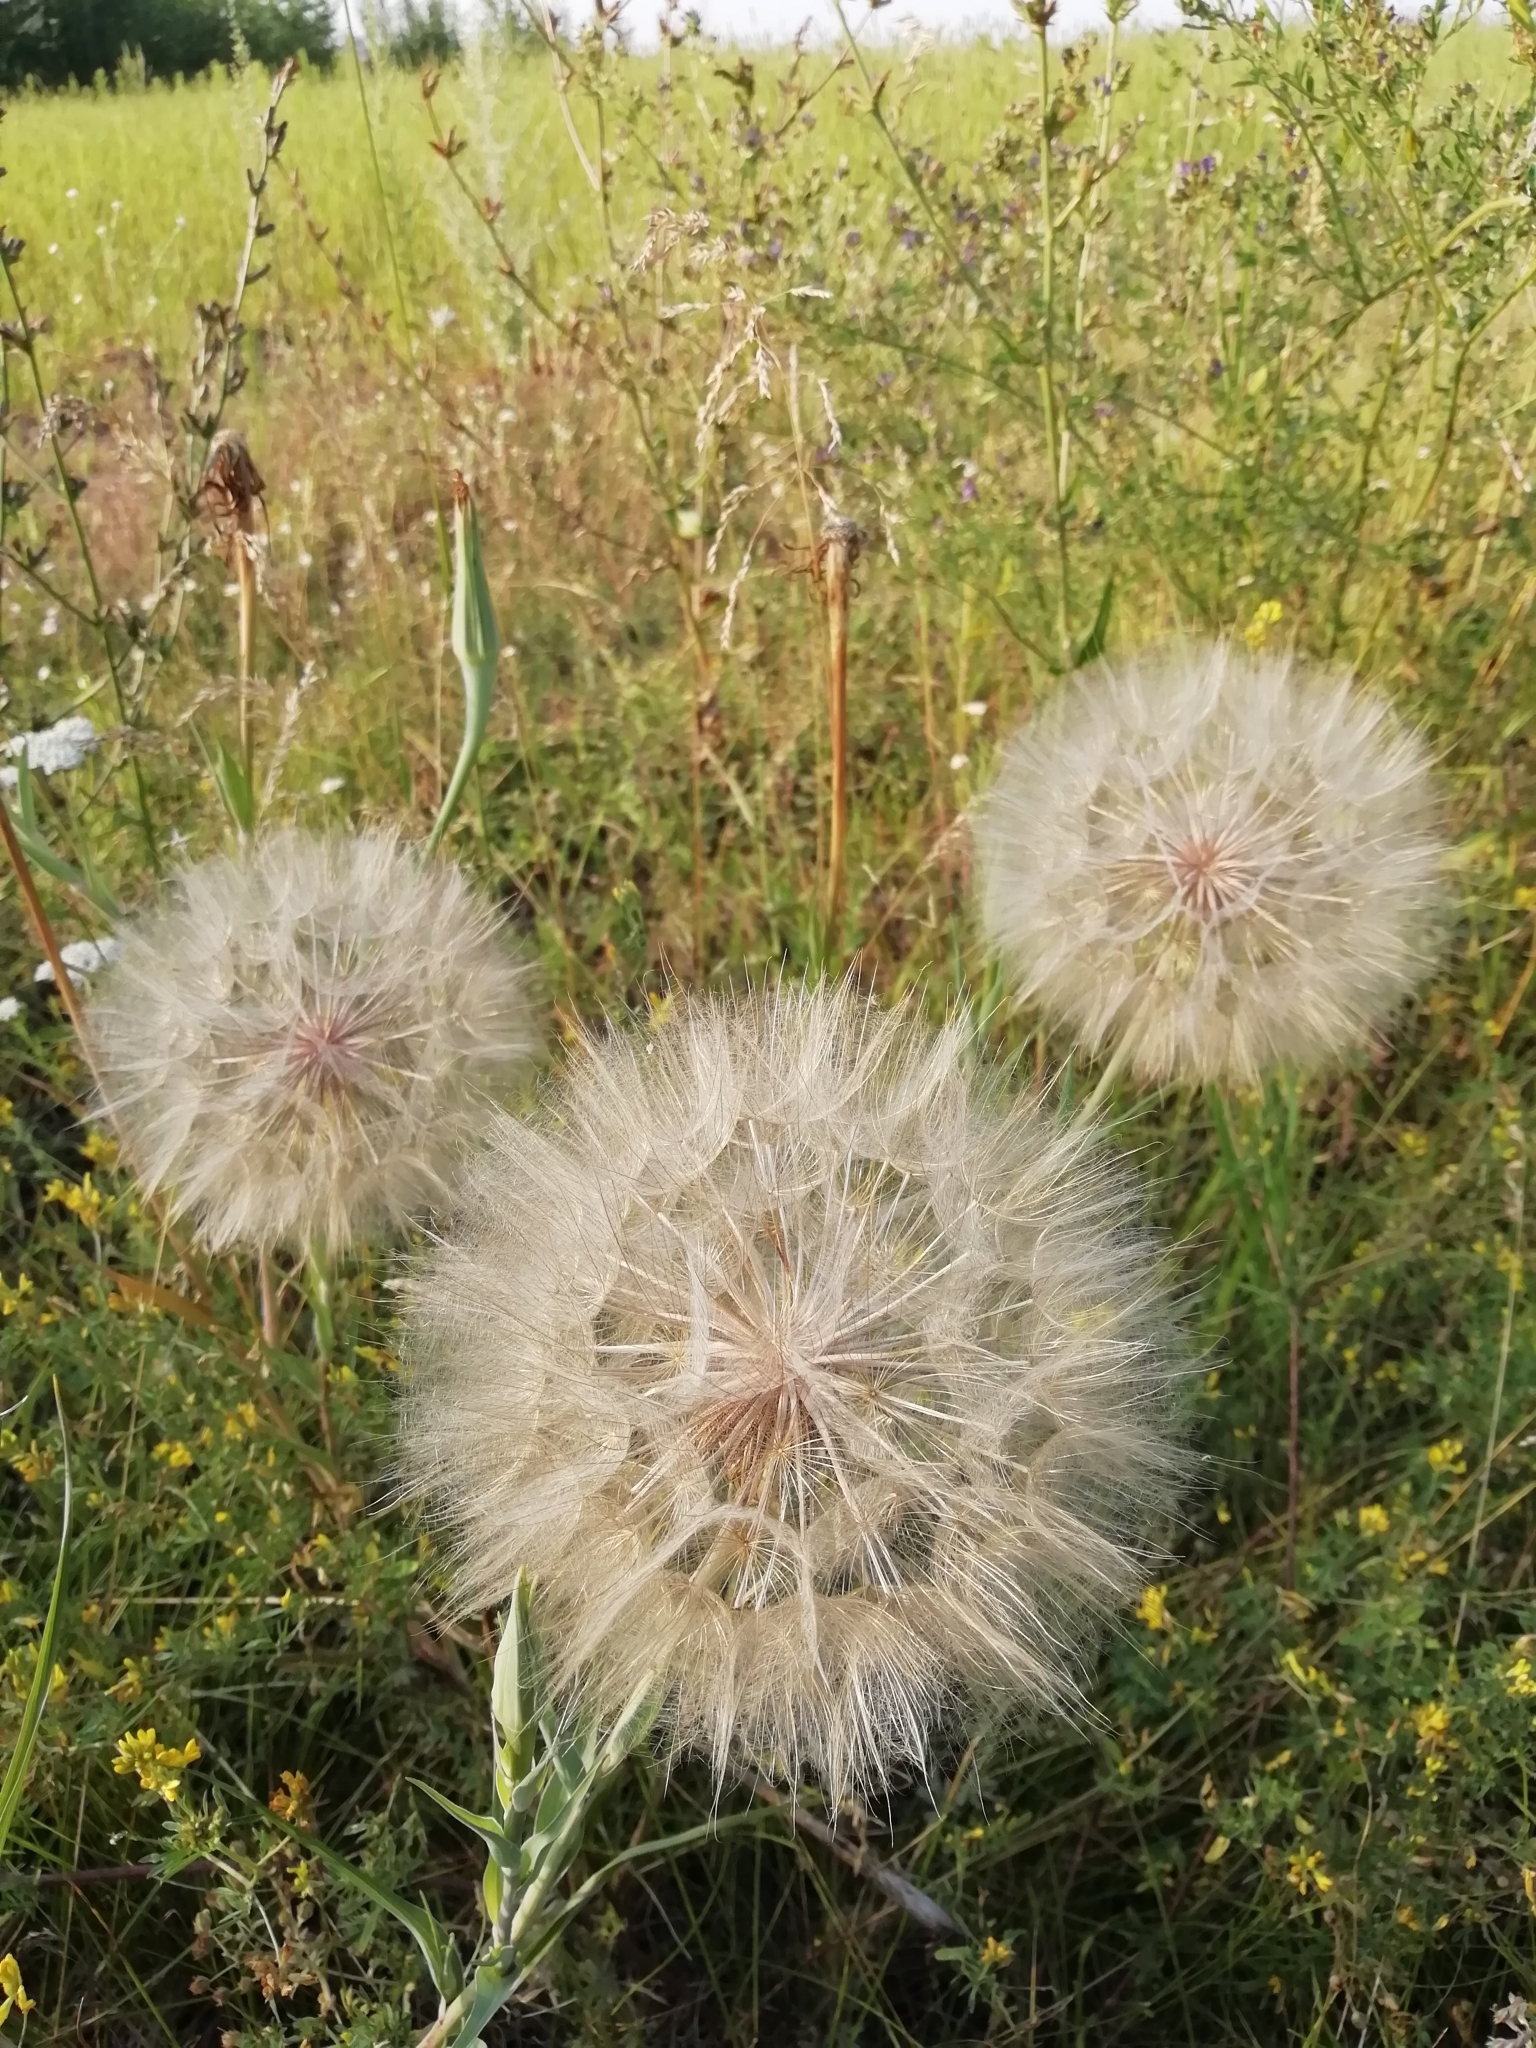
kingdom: Plantae
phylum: Tracheophyta
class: Magnoliopsida
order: Asterales
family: Asteraceae
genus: Tragopogon
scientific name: Tragopogon dubius
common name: Yellow salsify
